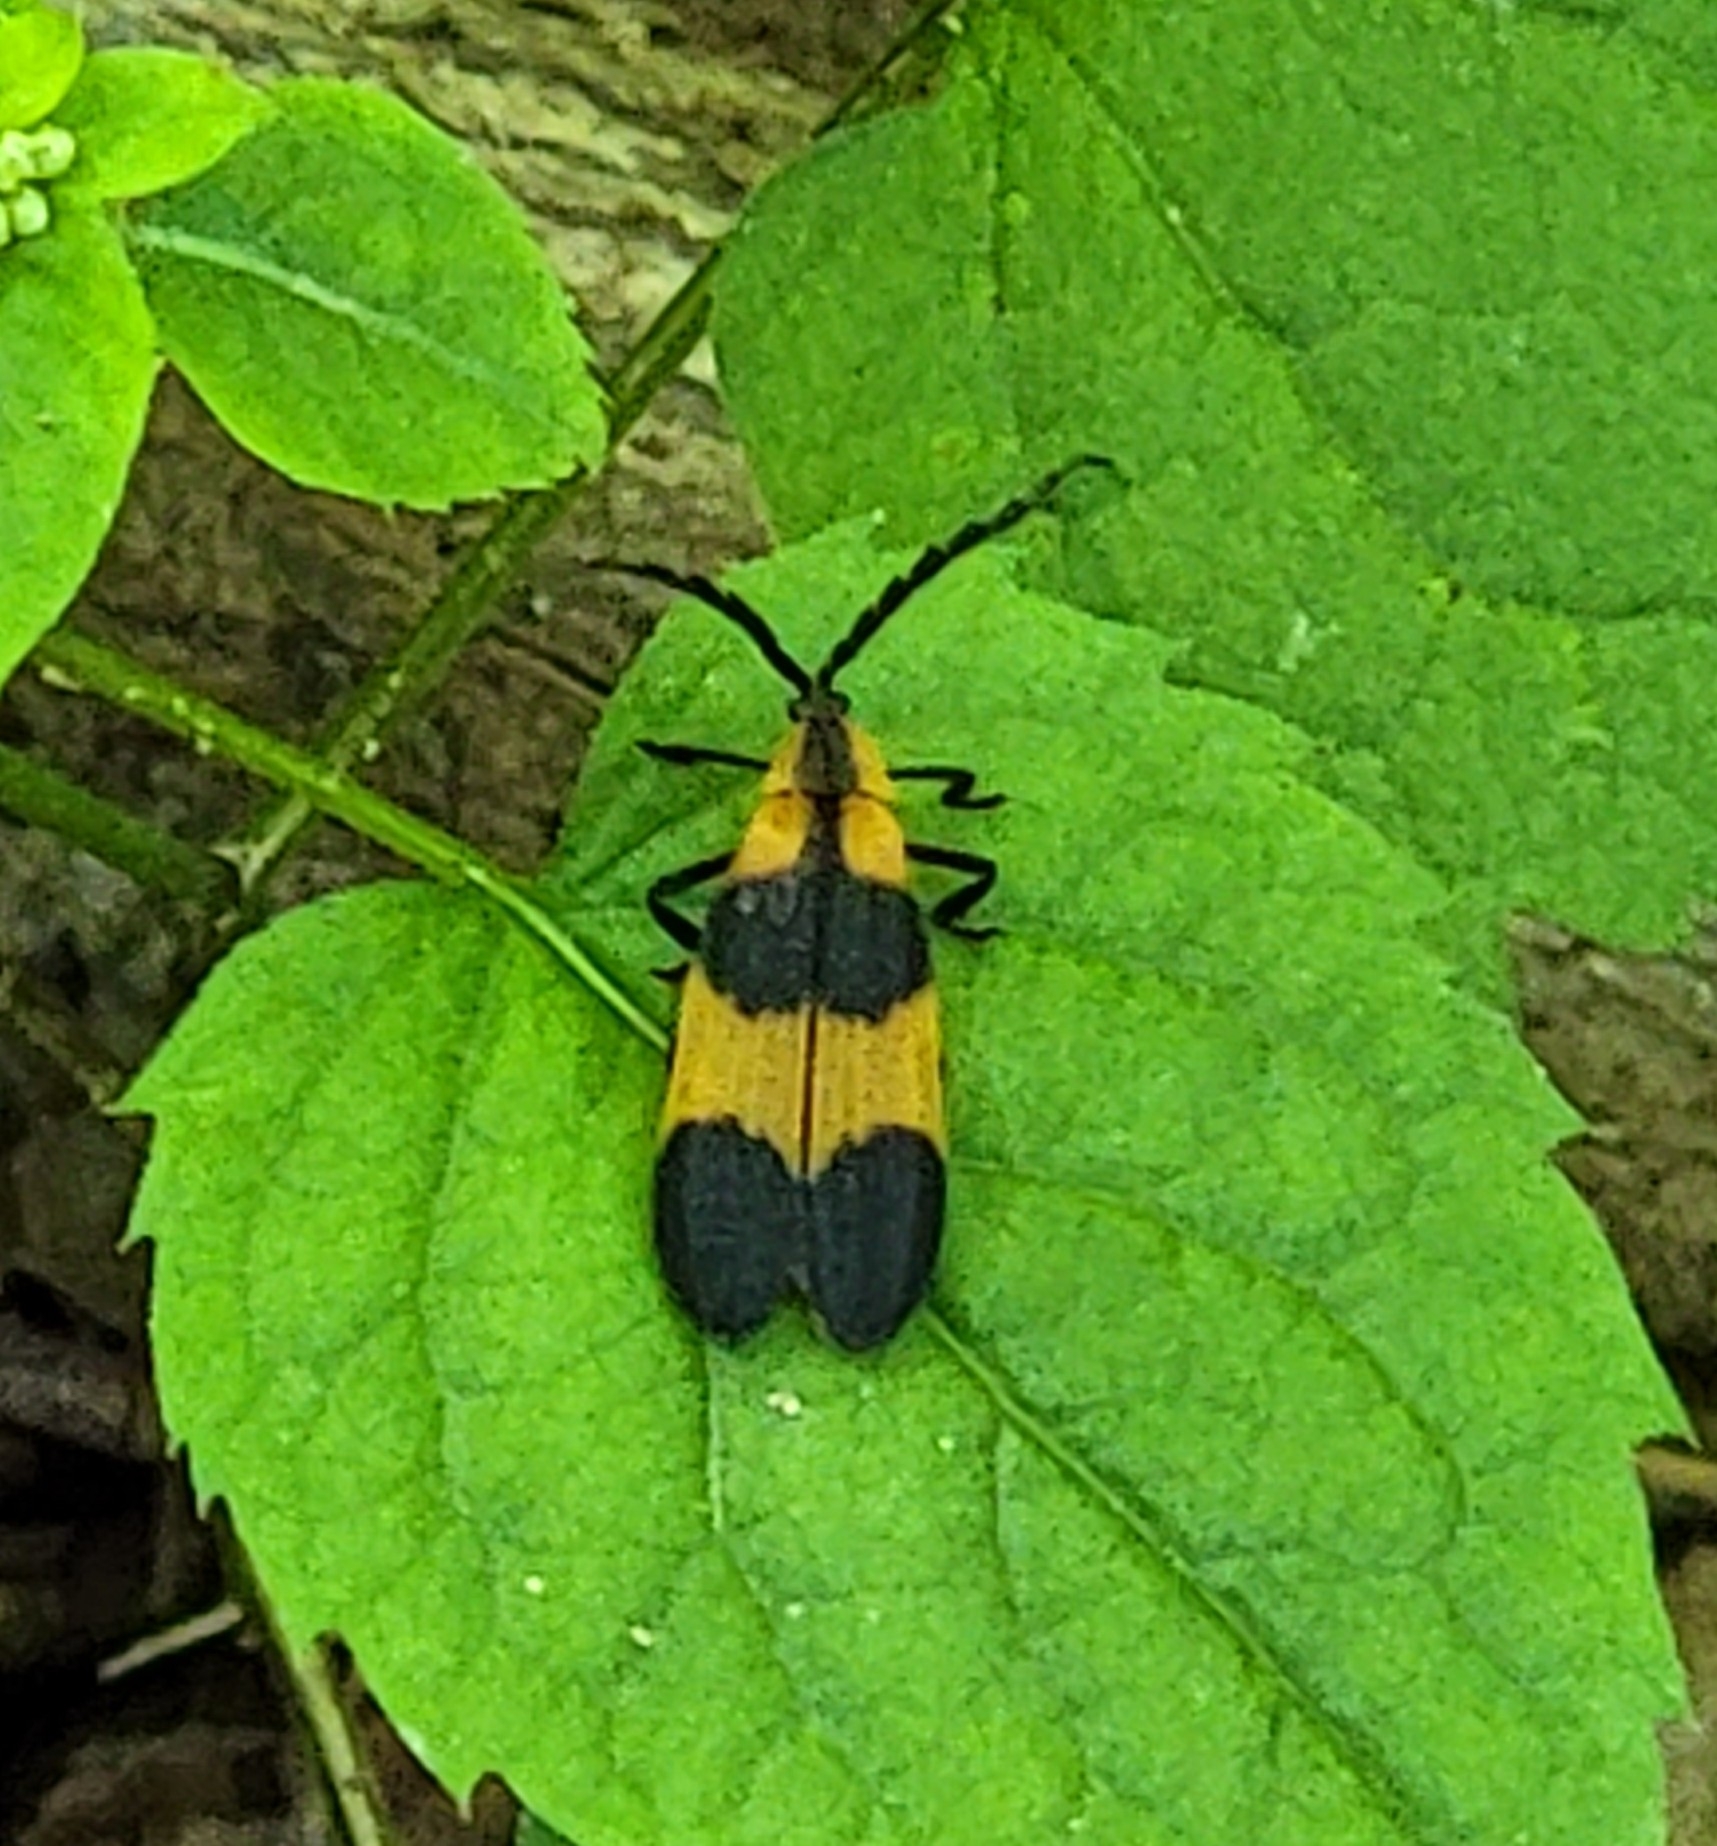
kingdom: Animalia
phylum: Arthropoda
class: Insecta
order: Coleoptera
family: Lycidae
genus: Calopteron
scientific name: Calopteron reticulatum
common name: Banded net-winged beetle
